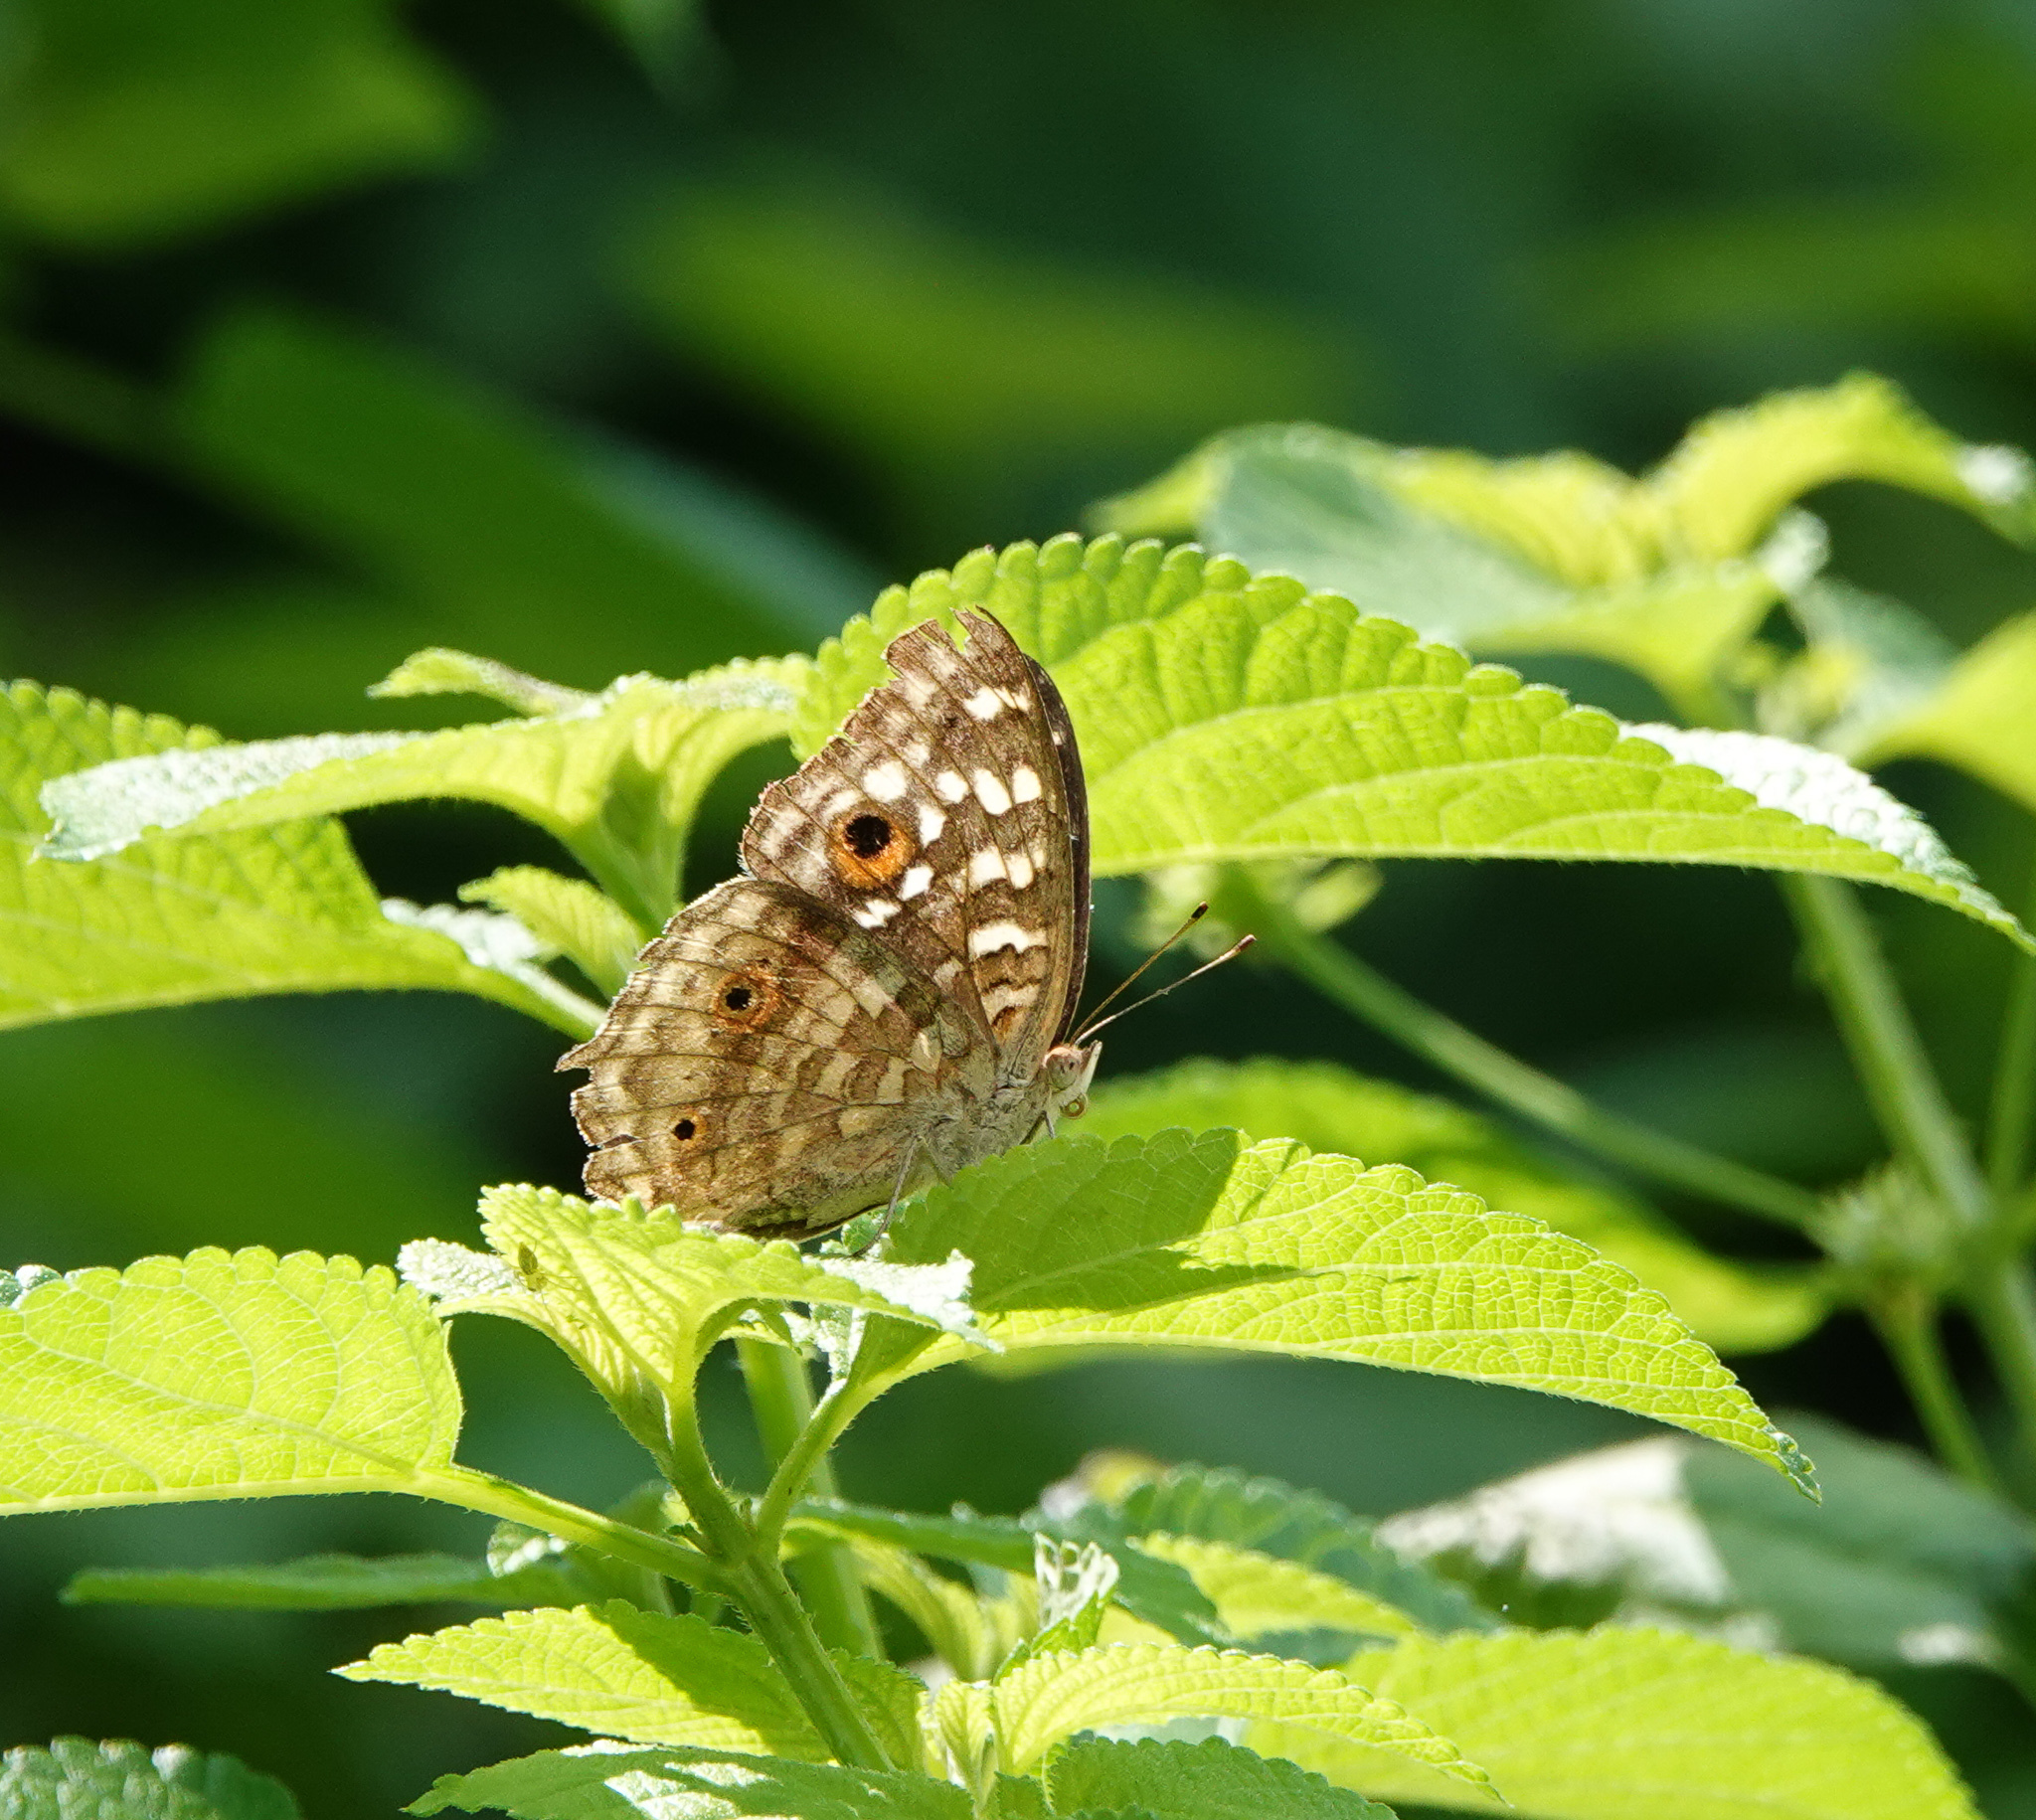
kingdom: Animalia
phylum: Arthropoda
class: Insecta
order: Lepidoptera
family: Nymphalidae
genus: Junonia
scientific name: Junonia lemonias
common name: Lemon pansy
